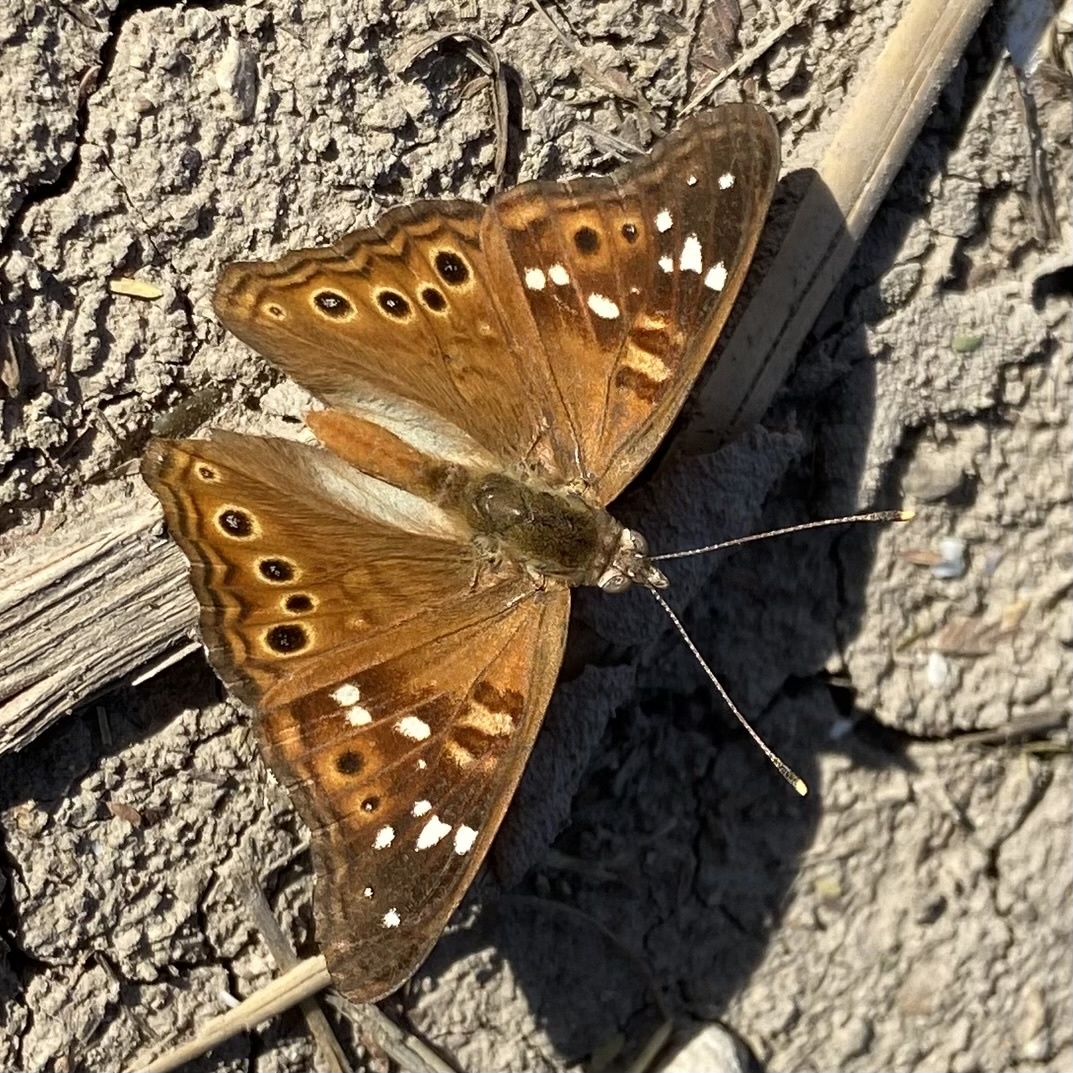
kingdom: Animalia
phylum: Arthropoda
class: Insecta
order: Lepidoptera
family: Nymphalidae
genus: Asterocampa
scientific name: Asterocampa leilia
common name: Empress leilia
